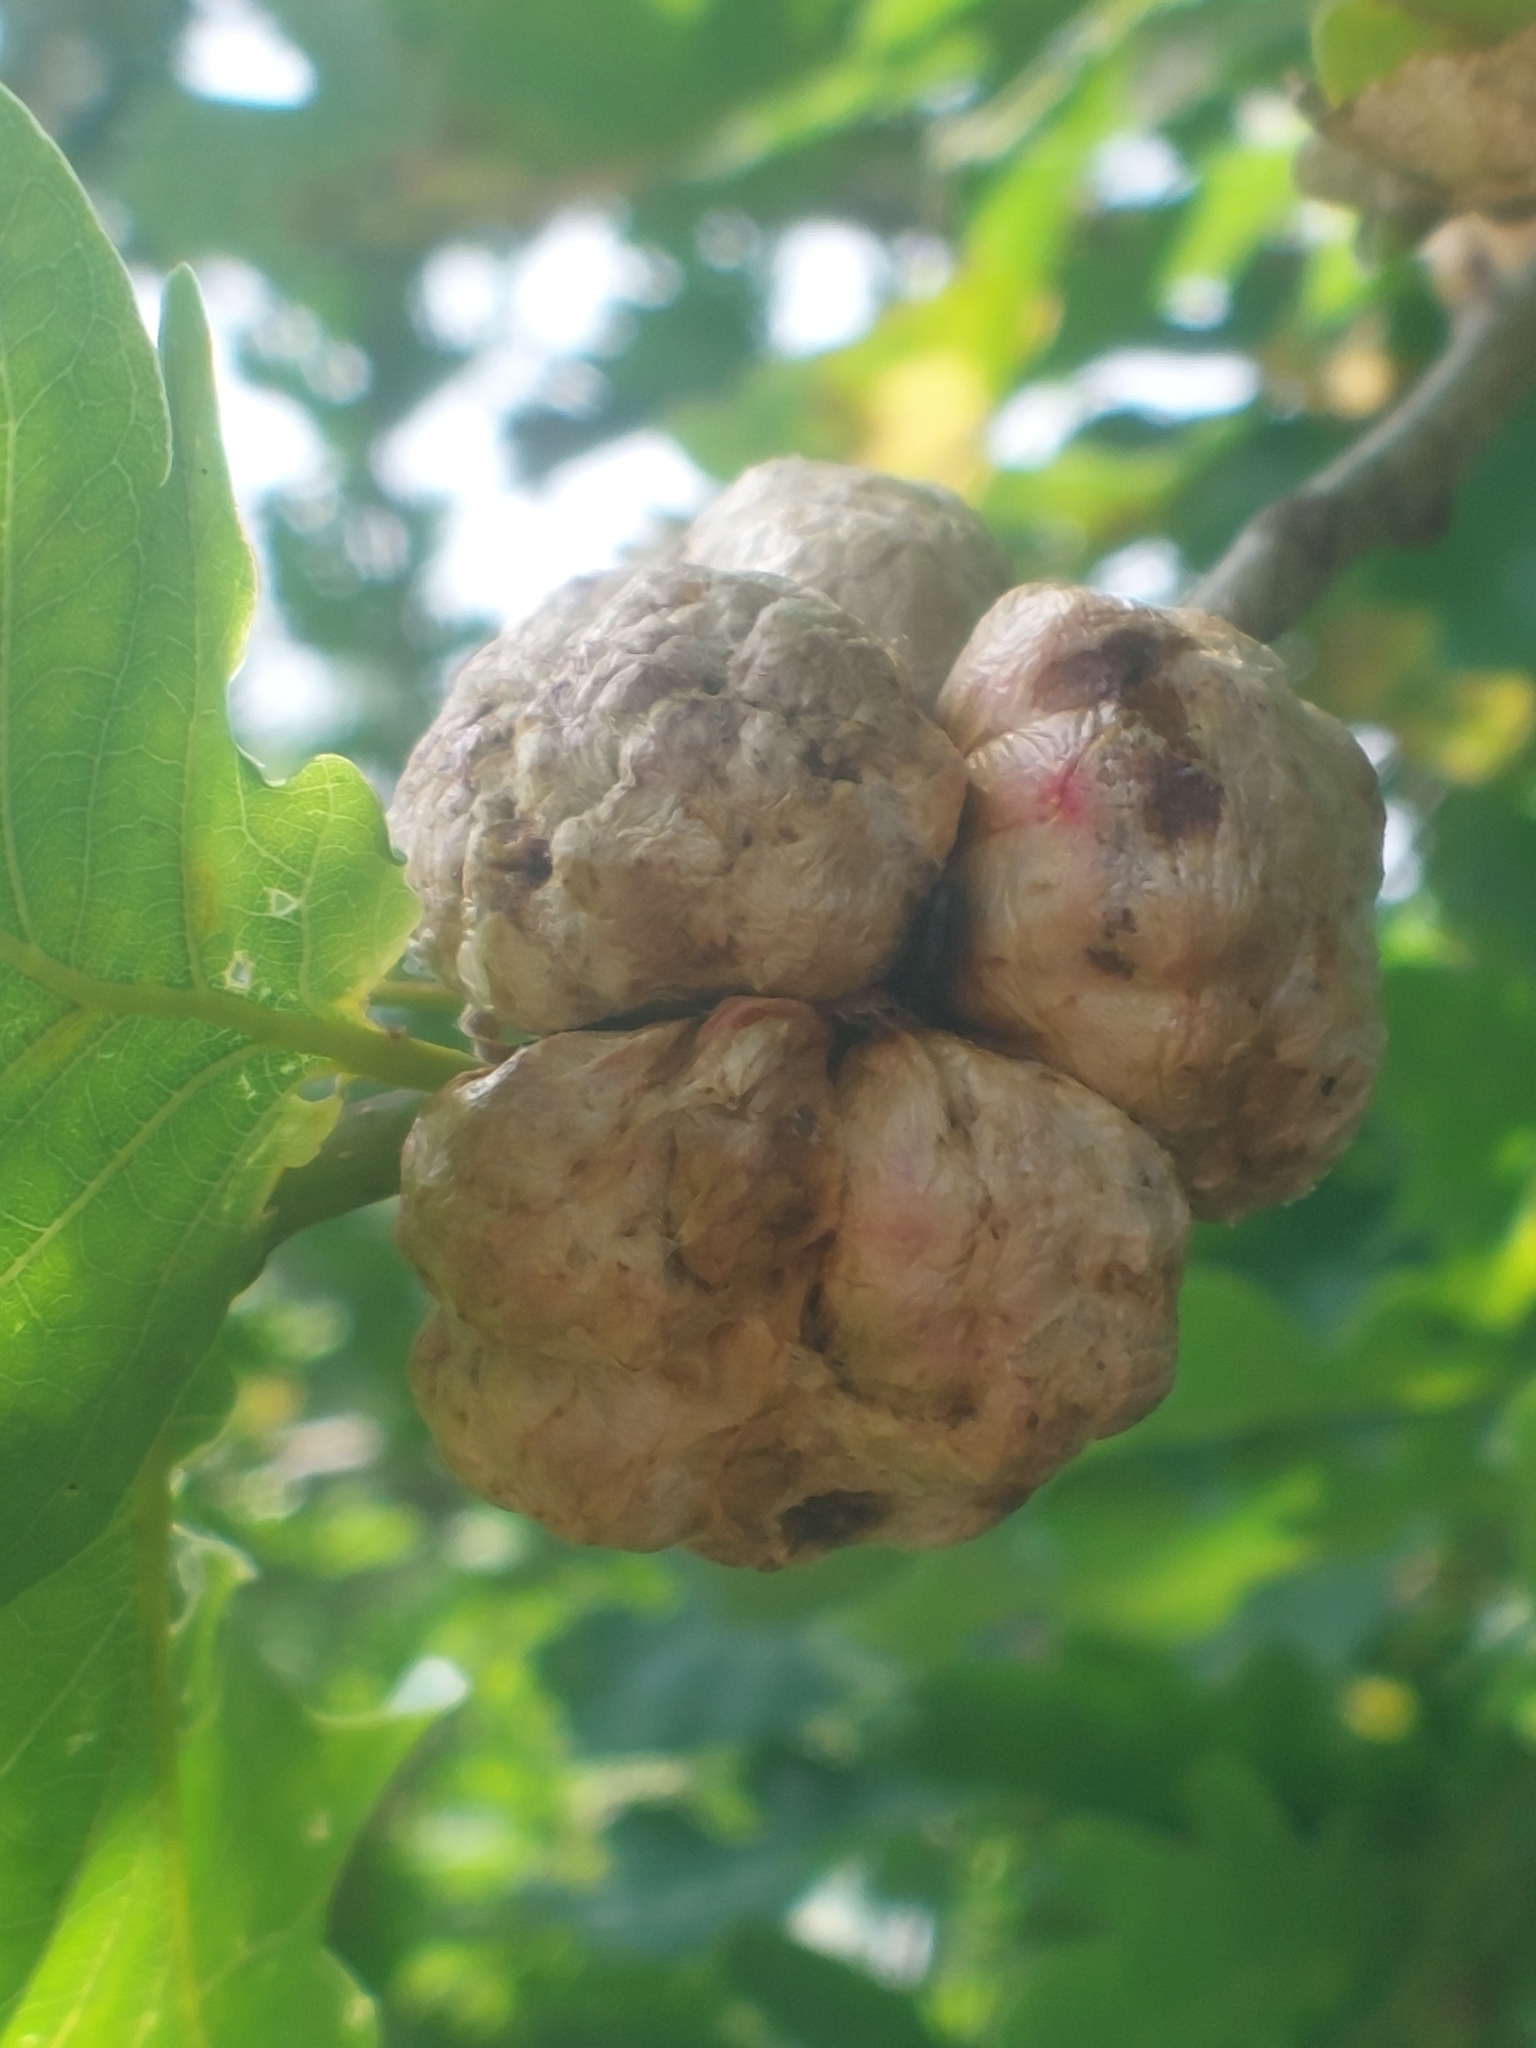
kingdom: Animalia
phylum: Arthropoda
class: Insecta
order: Hymenoptera
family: Cynipidae
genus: Biorhiza
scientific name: Biorhiza pallida
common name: Oak apple
